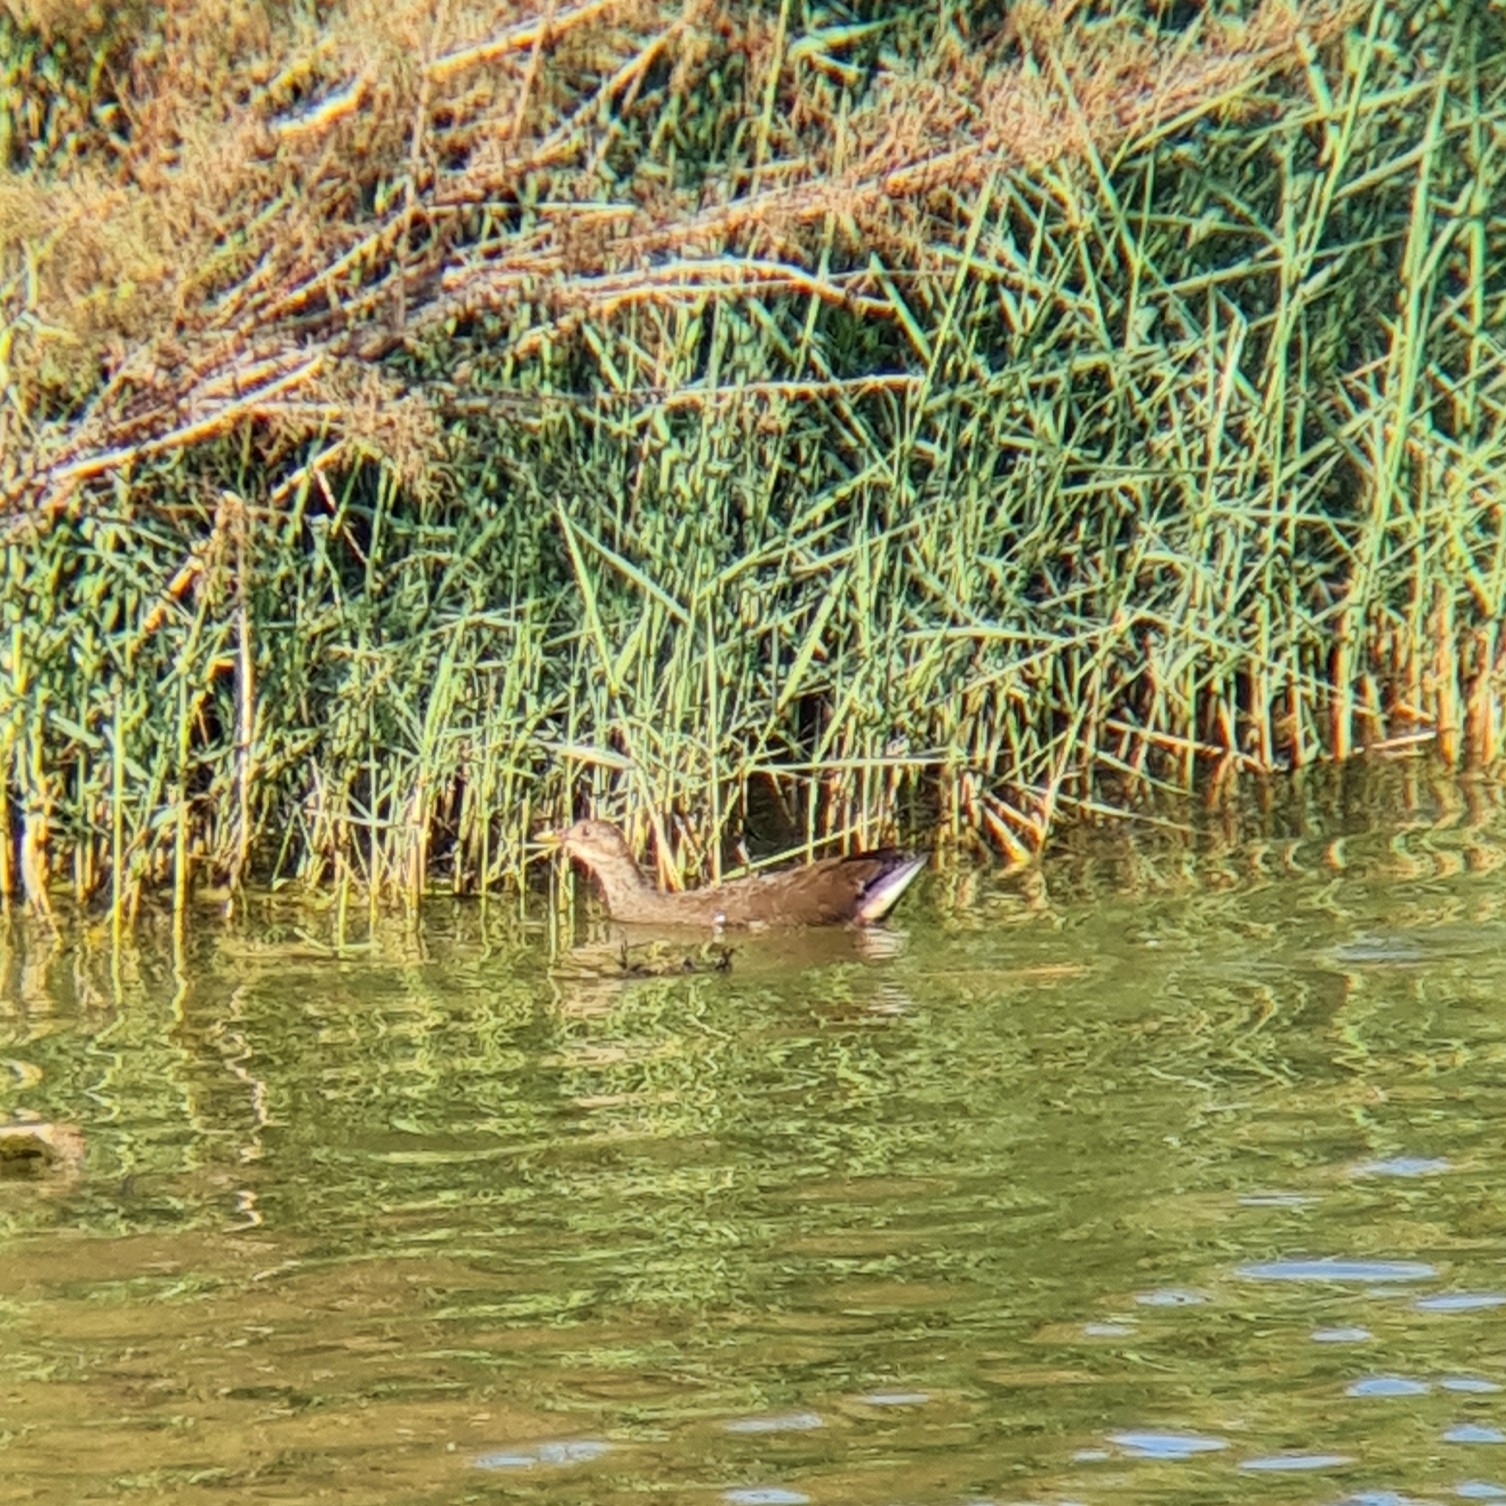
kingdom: Animalia
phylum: Chordata
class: Aves
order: Gruiformes
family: Rallidae
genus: Gallinula
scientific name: Gallinula chloropus
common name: Common moorhen
